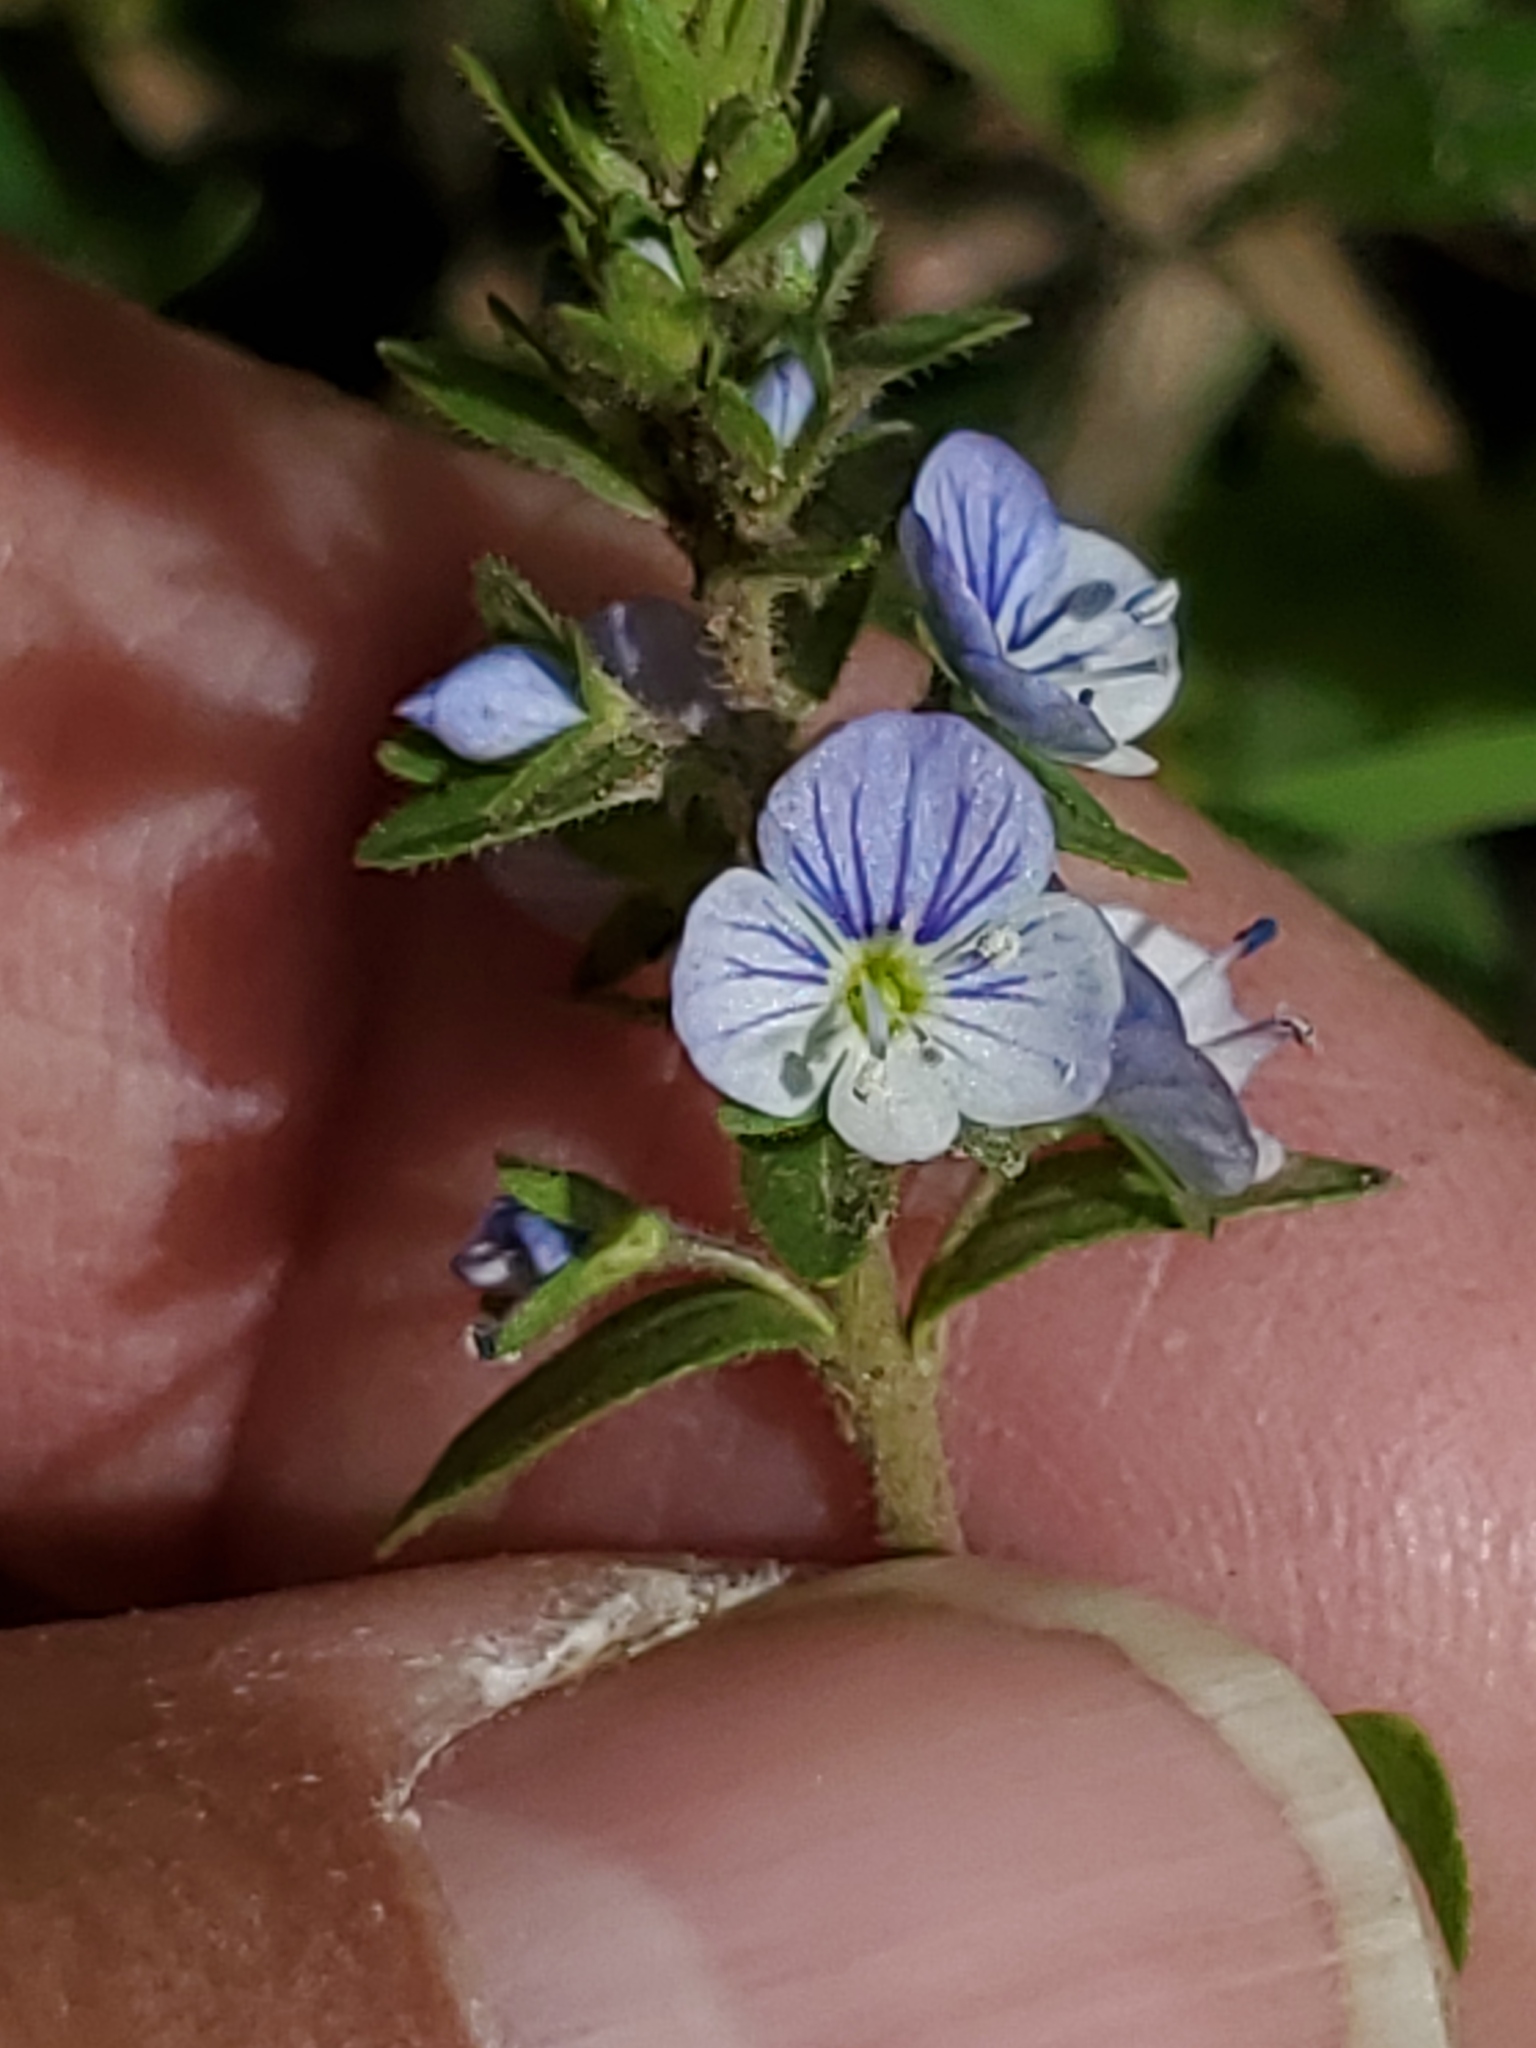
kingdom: Plantae
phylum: Tracheophyta
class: Magnoliopsida
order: Lamiales
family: Plantaginaceae
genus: Veronica
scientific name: Veronica serpyllifolia
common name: Thyme-leaved speedwell
